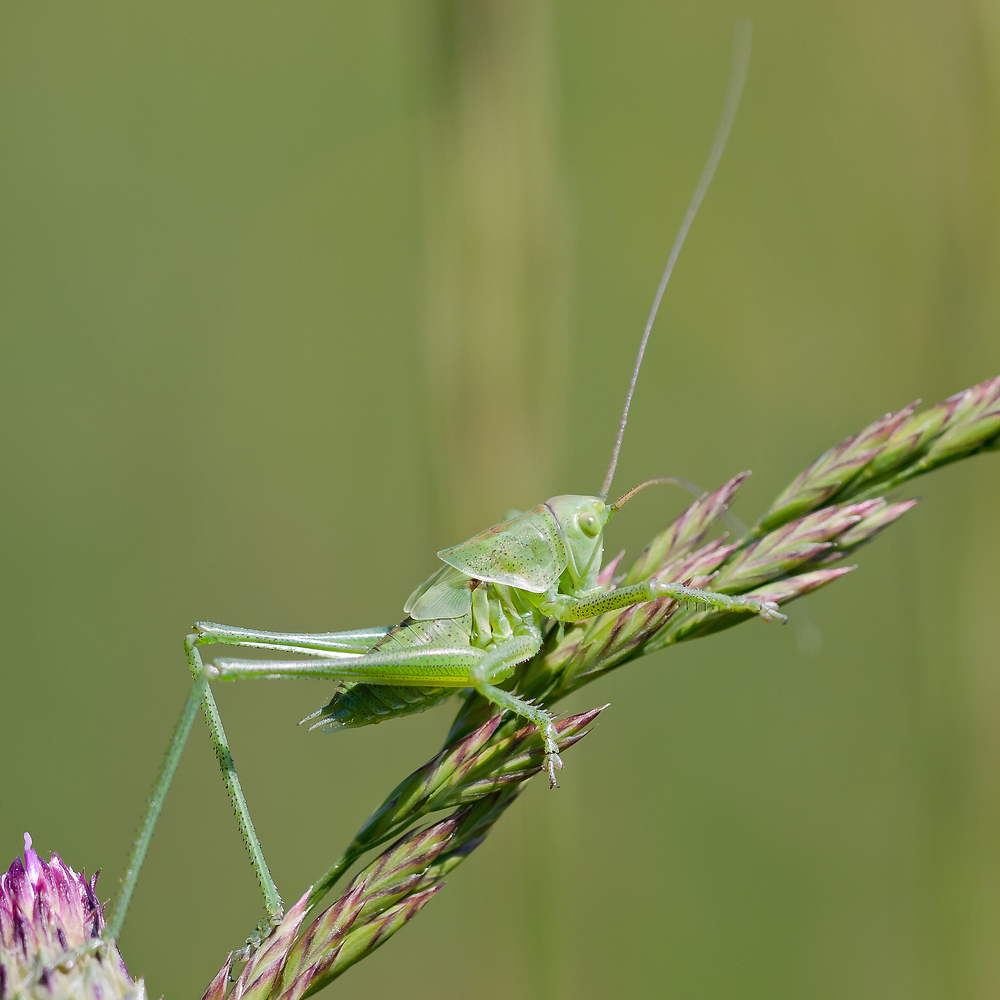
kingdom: Animalia
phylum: Arthropoda
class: Insecta
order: Orthoptera
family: Tettigoniidae
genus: Tettigonia
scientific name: Tettigonia viridissima
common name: Great green bush-cricket
